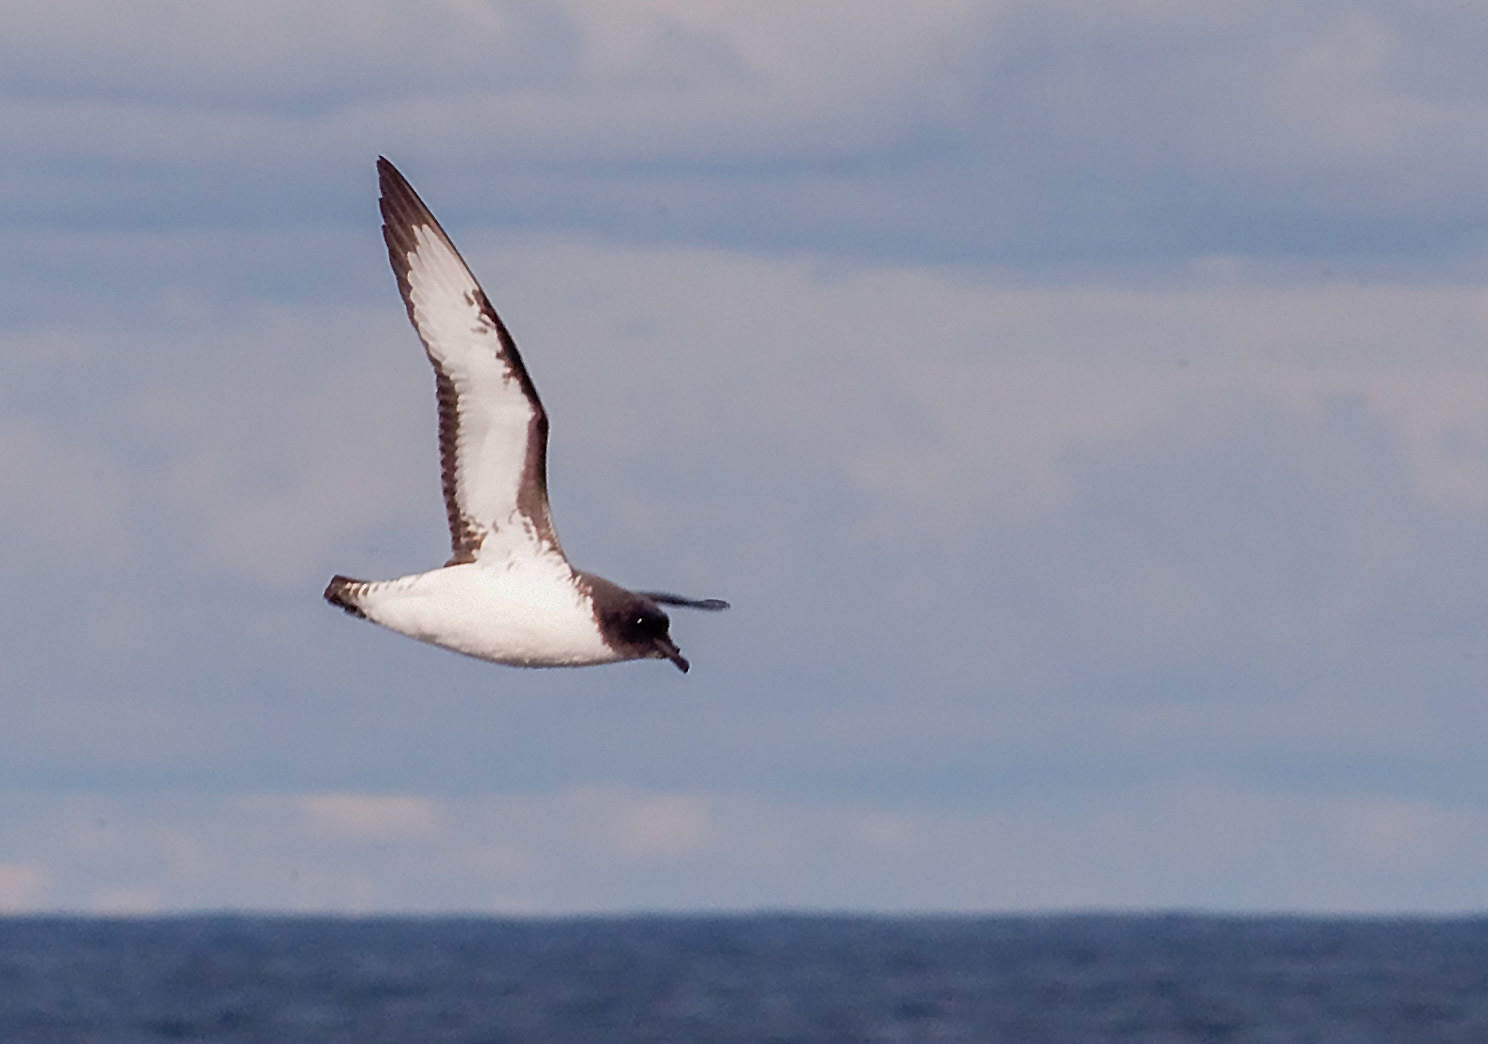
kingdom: Animalia
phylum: Chordata
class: Aves
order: Procellariiformes
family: Procellariidae
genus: Daption
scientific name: Daption capense
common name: Cape petrel
